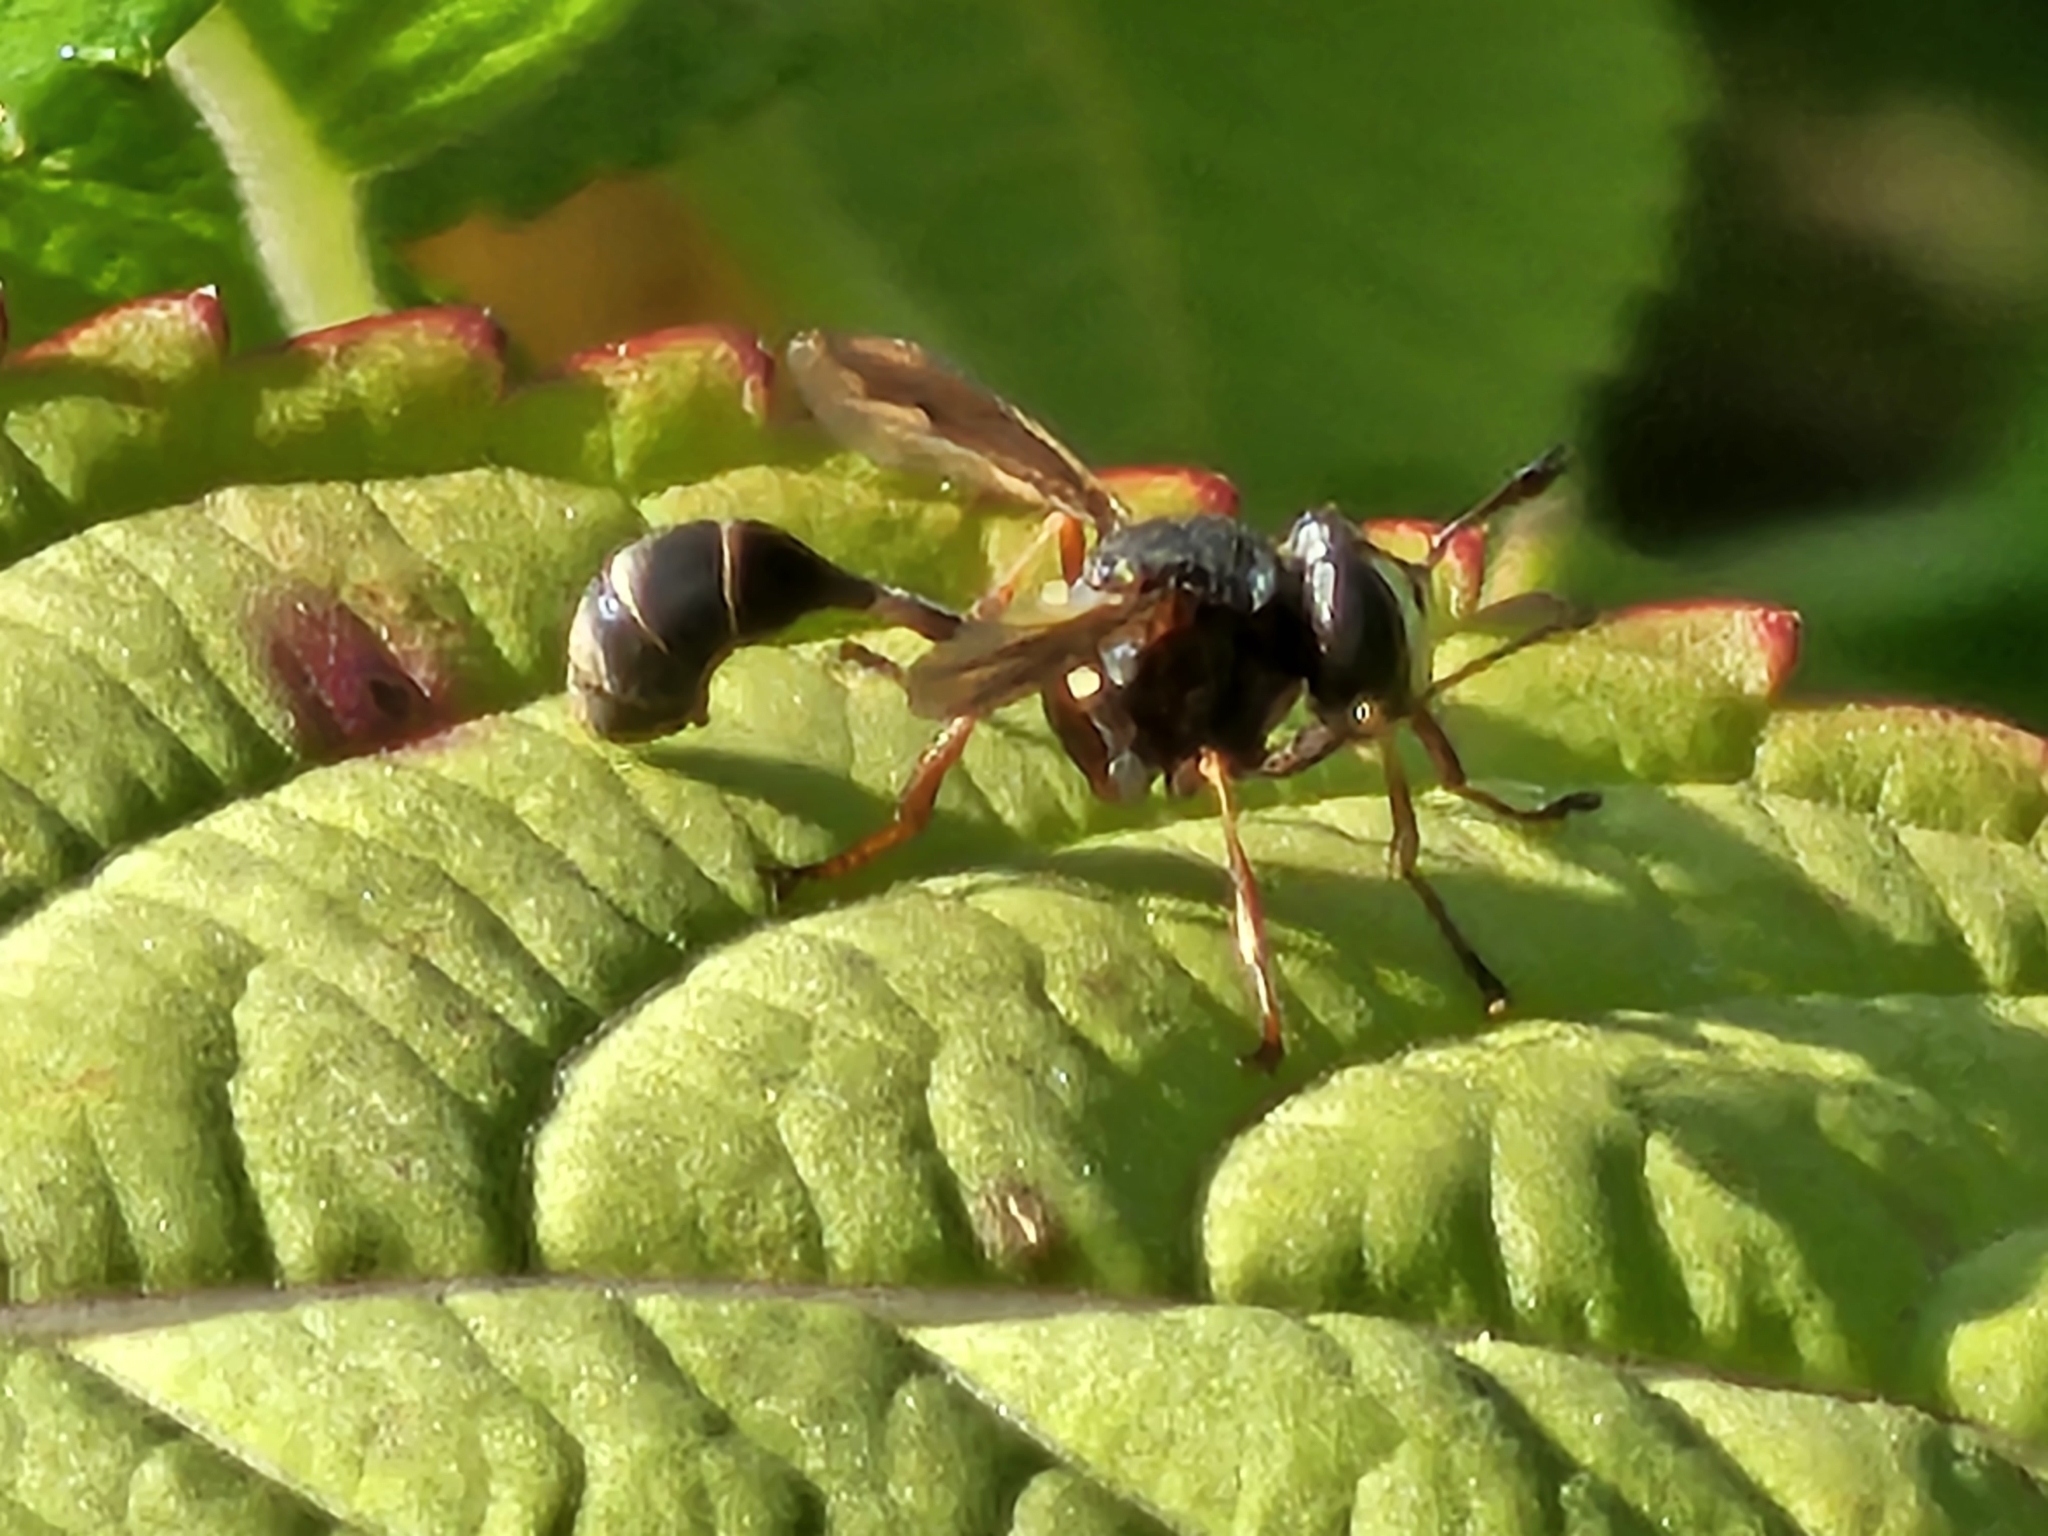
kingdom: Animalia
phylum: Arthropoda
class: Insecta
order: Diptera
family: Conopidae
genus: Physocephala
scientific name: Physocephala furcillata
